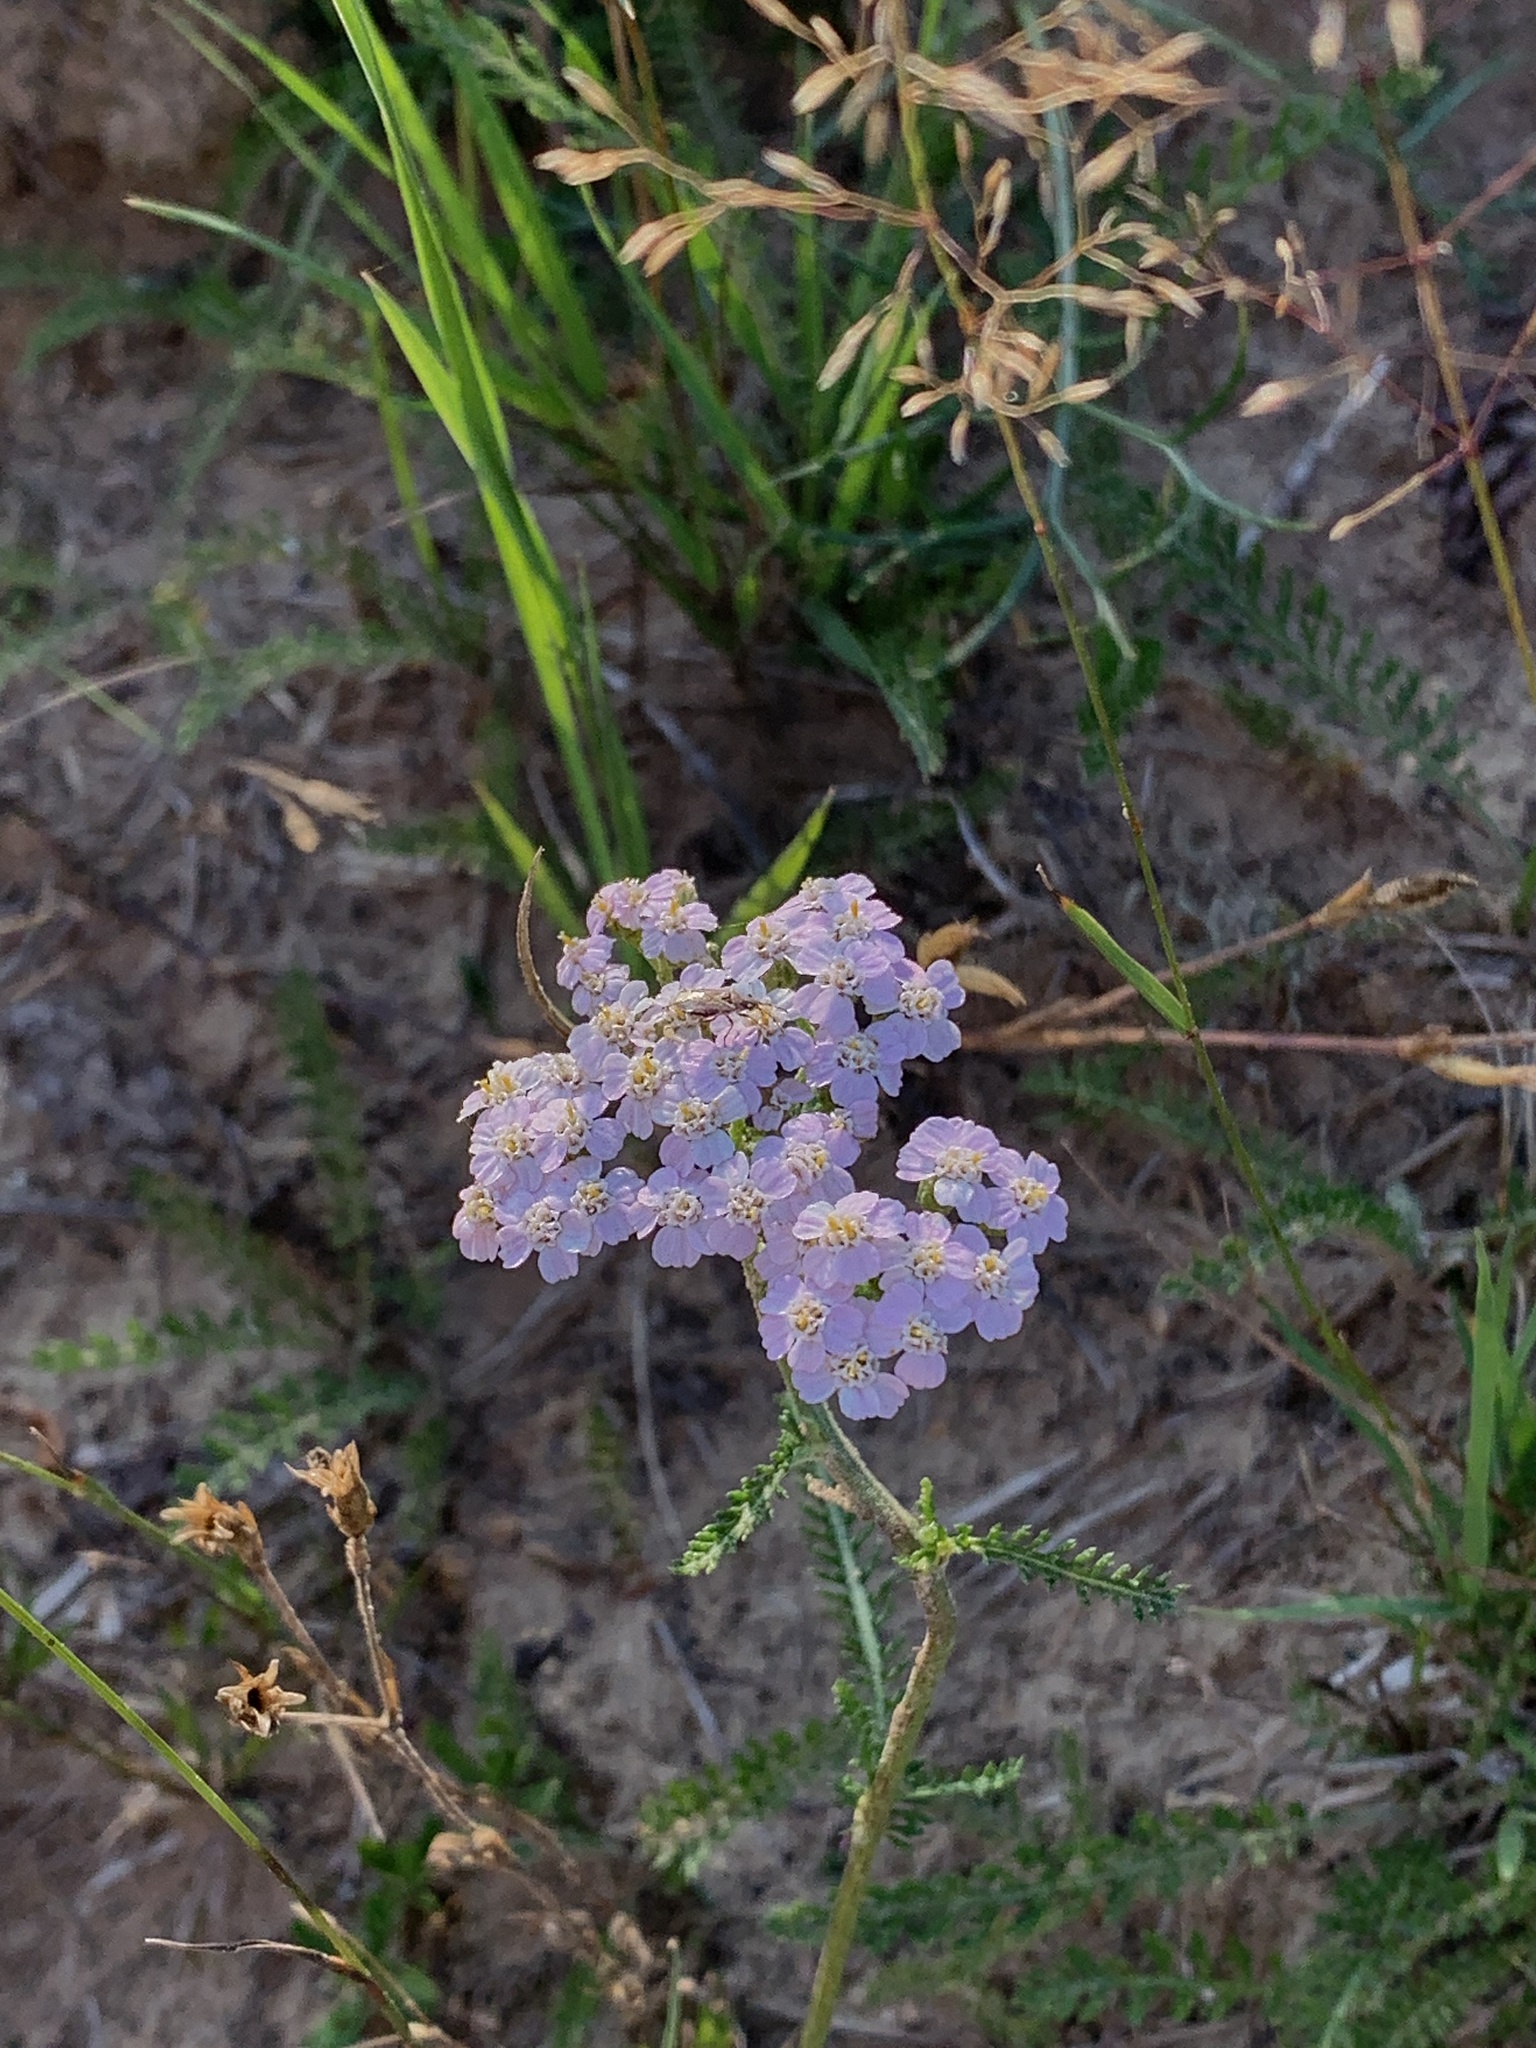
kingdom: Plantae
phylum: Tracheophyta
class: Magnoliopsida
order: Asterales
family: Asteraceae
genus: Achillea
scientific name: Achillea millefolium
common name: Yarrow
